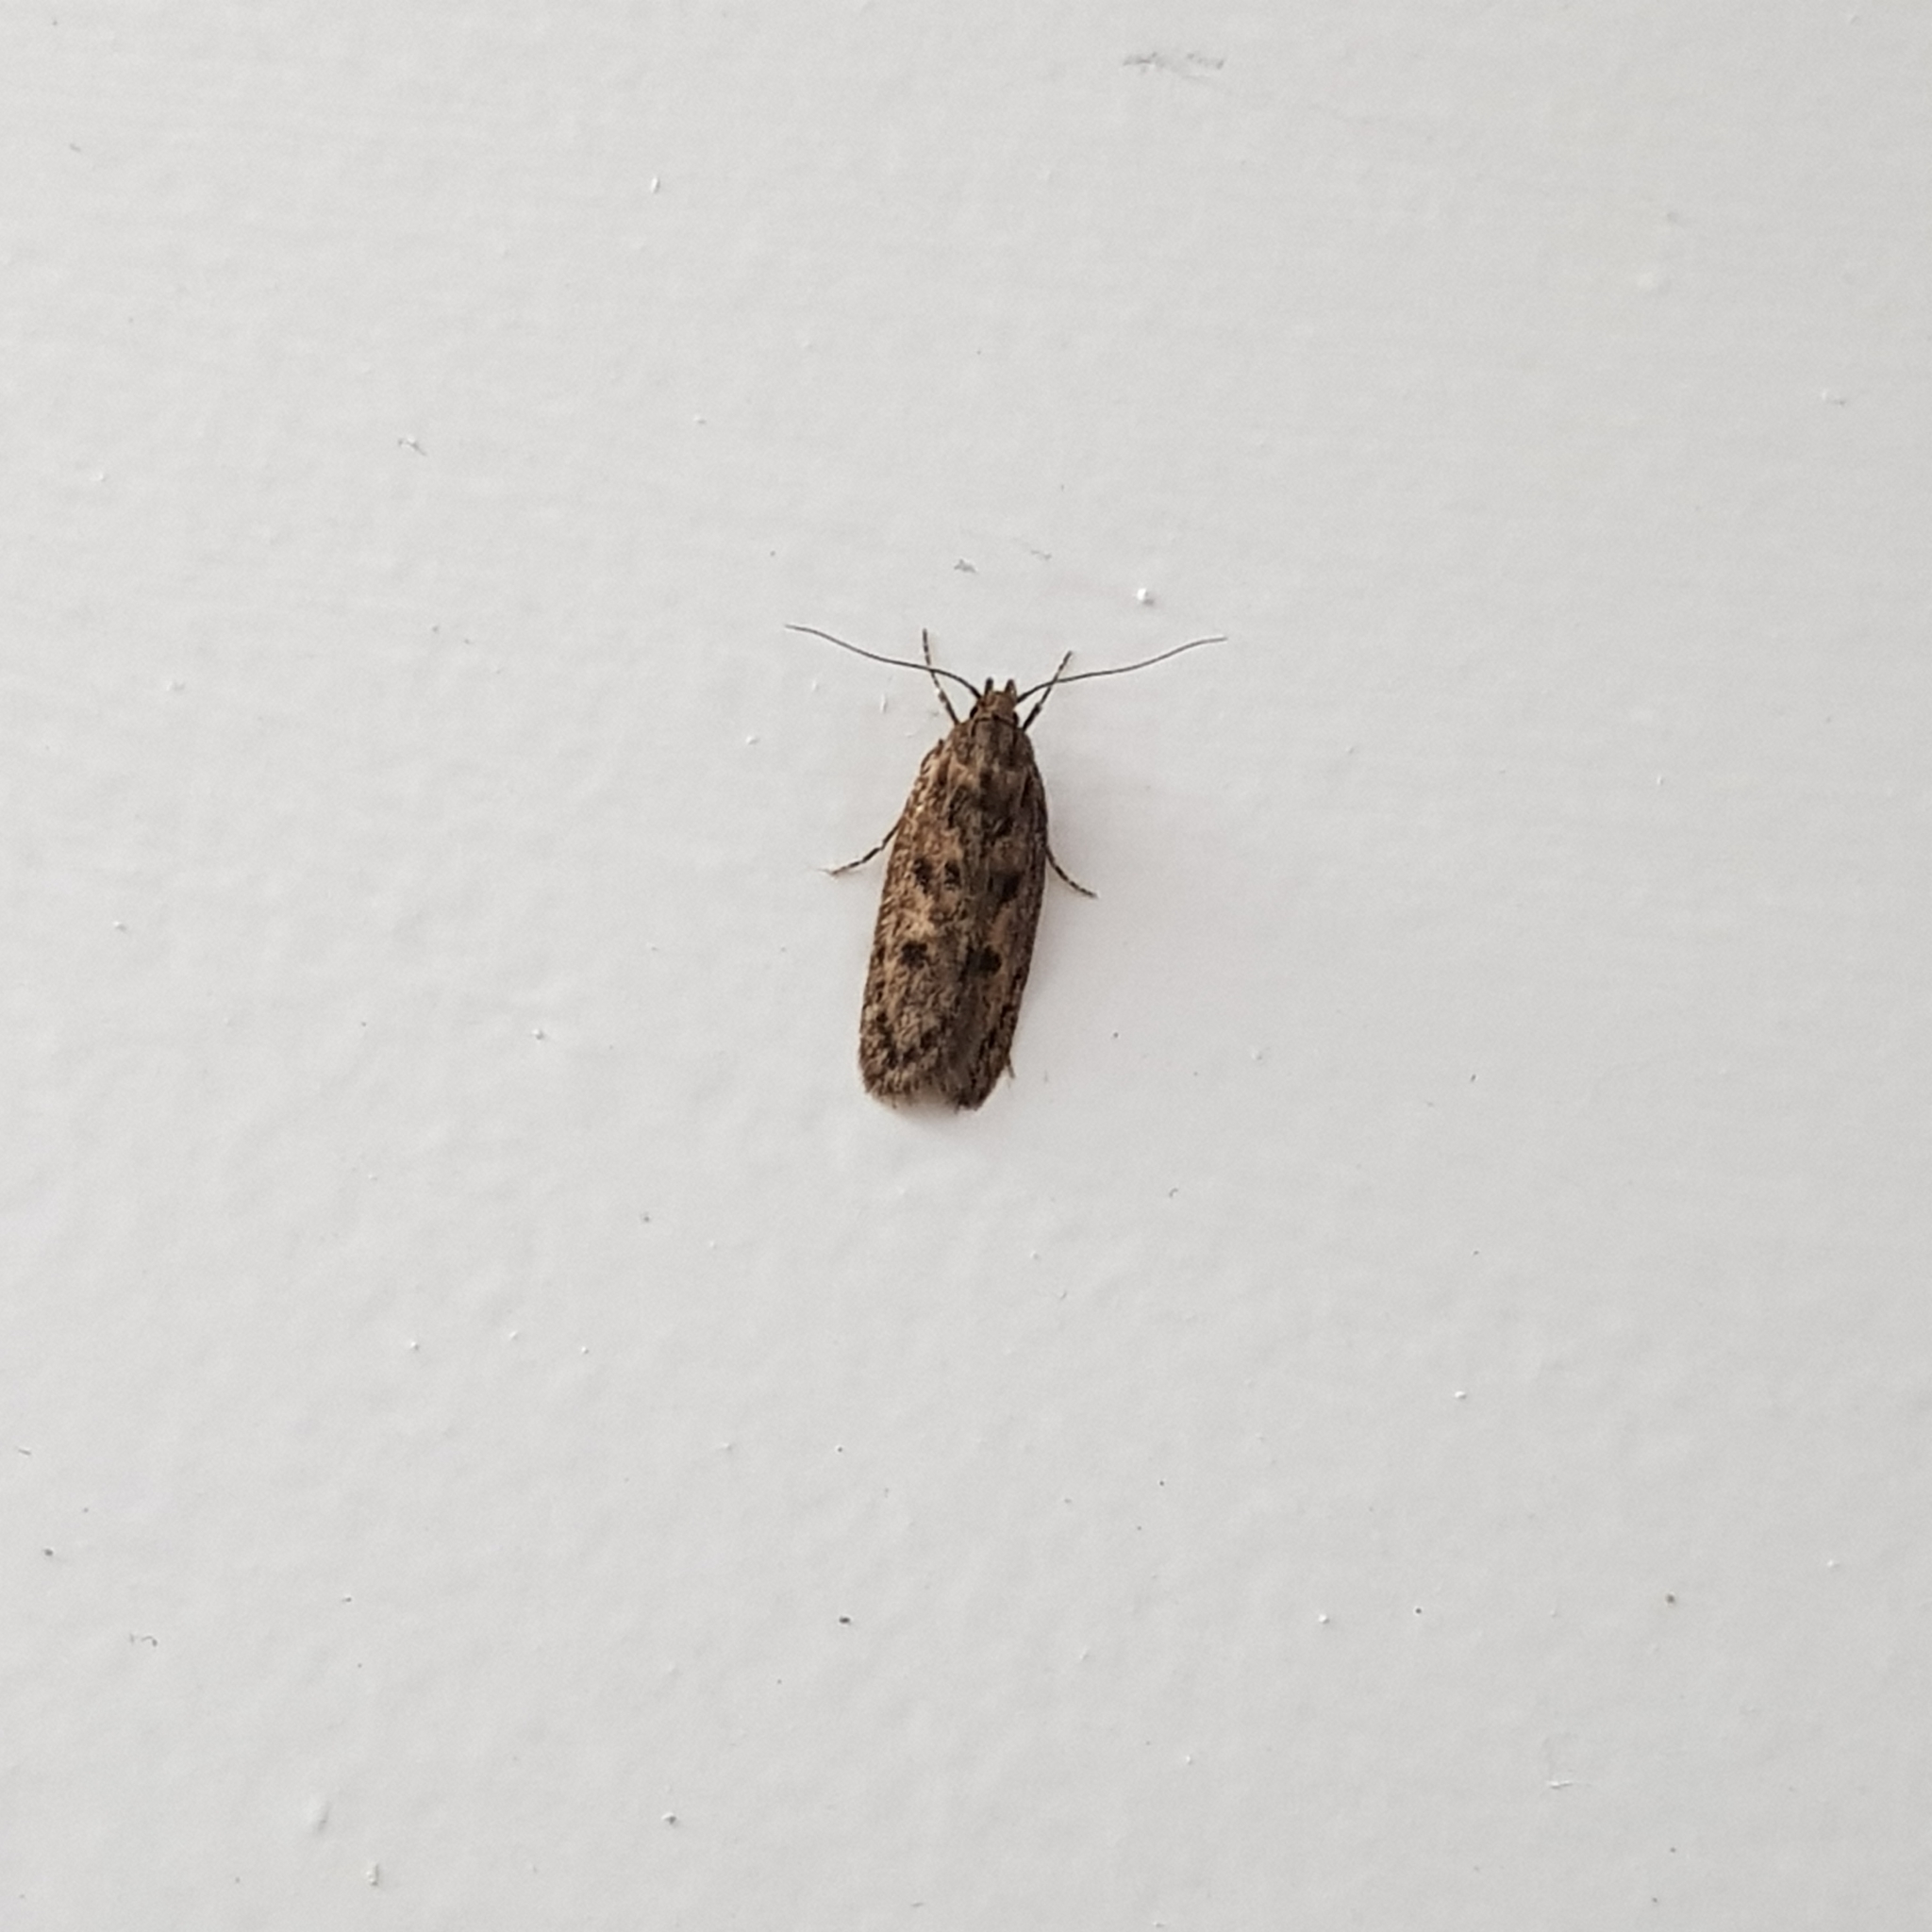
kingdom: Animalia
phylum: Arthropoda
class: Insecta
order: Lepidoptera
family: Oecophoridae
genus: Hofmannophila
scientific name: Hofmannophila pseudospretella
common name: Brown house moth
